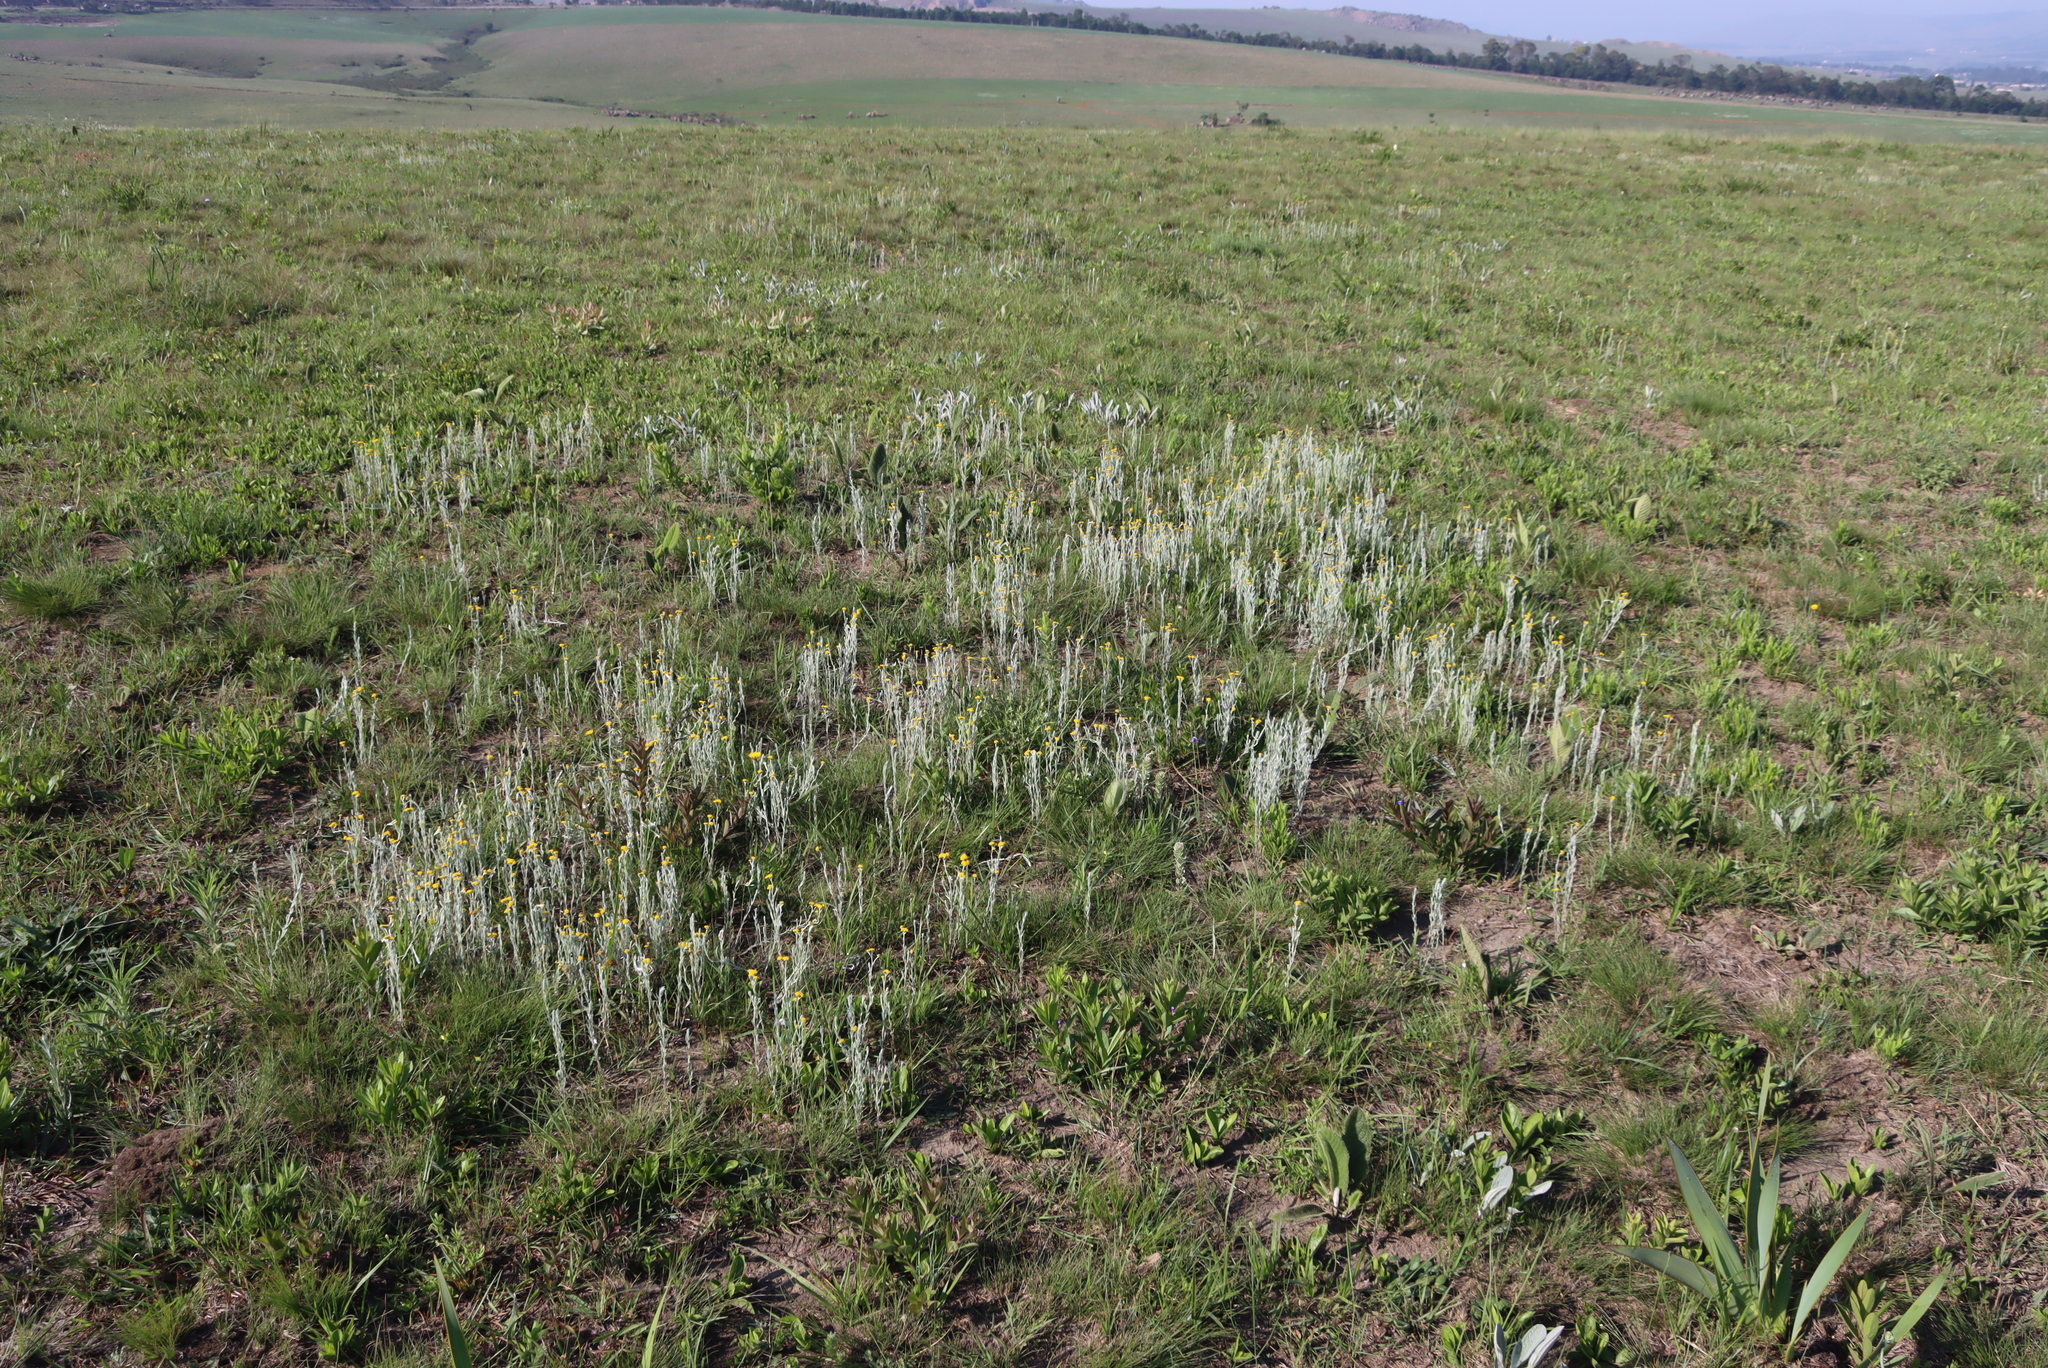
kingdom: Plantae
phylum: Tracheophyta
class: Magnoliopsida
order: Asterales
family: Asteraceae
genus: Helichrysum
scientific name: Helichrysum aureonitens
